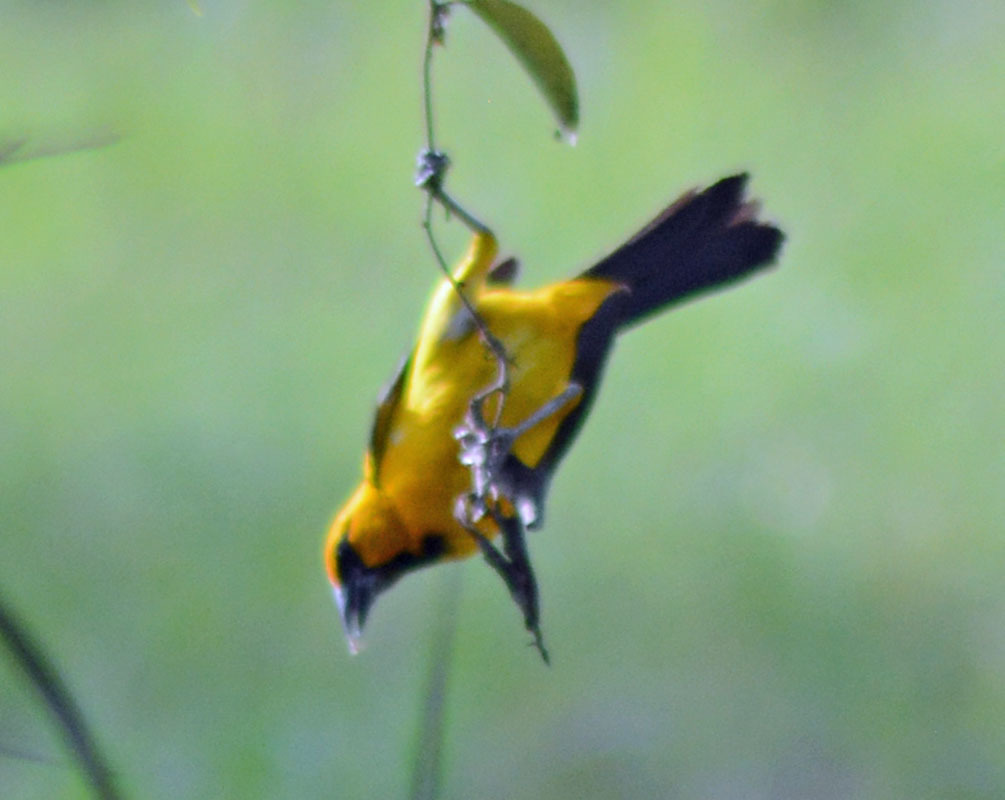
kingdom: Animalia
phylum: Chordata
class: Aves
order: Passeriformes
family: Icteridae
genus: Icterus
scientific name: Icterus gularis
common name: Altamira oriole
